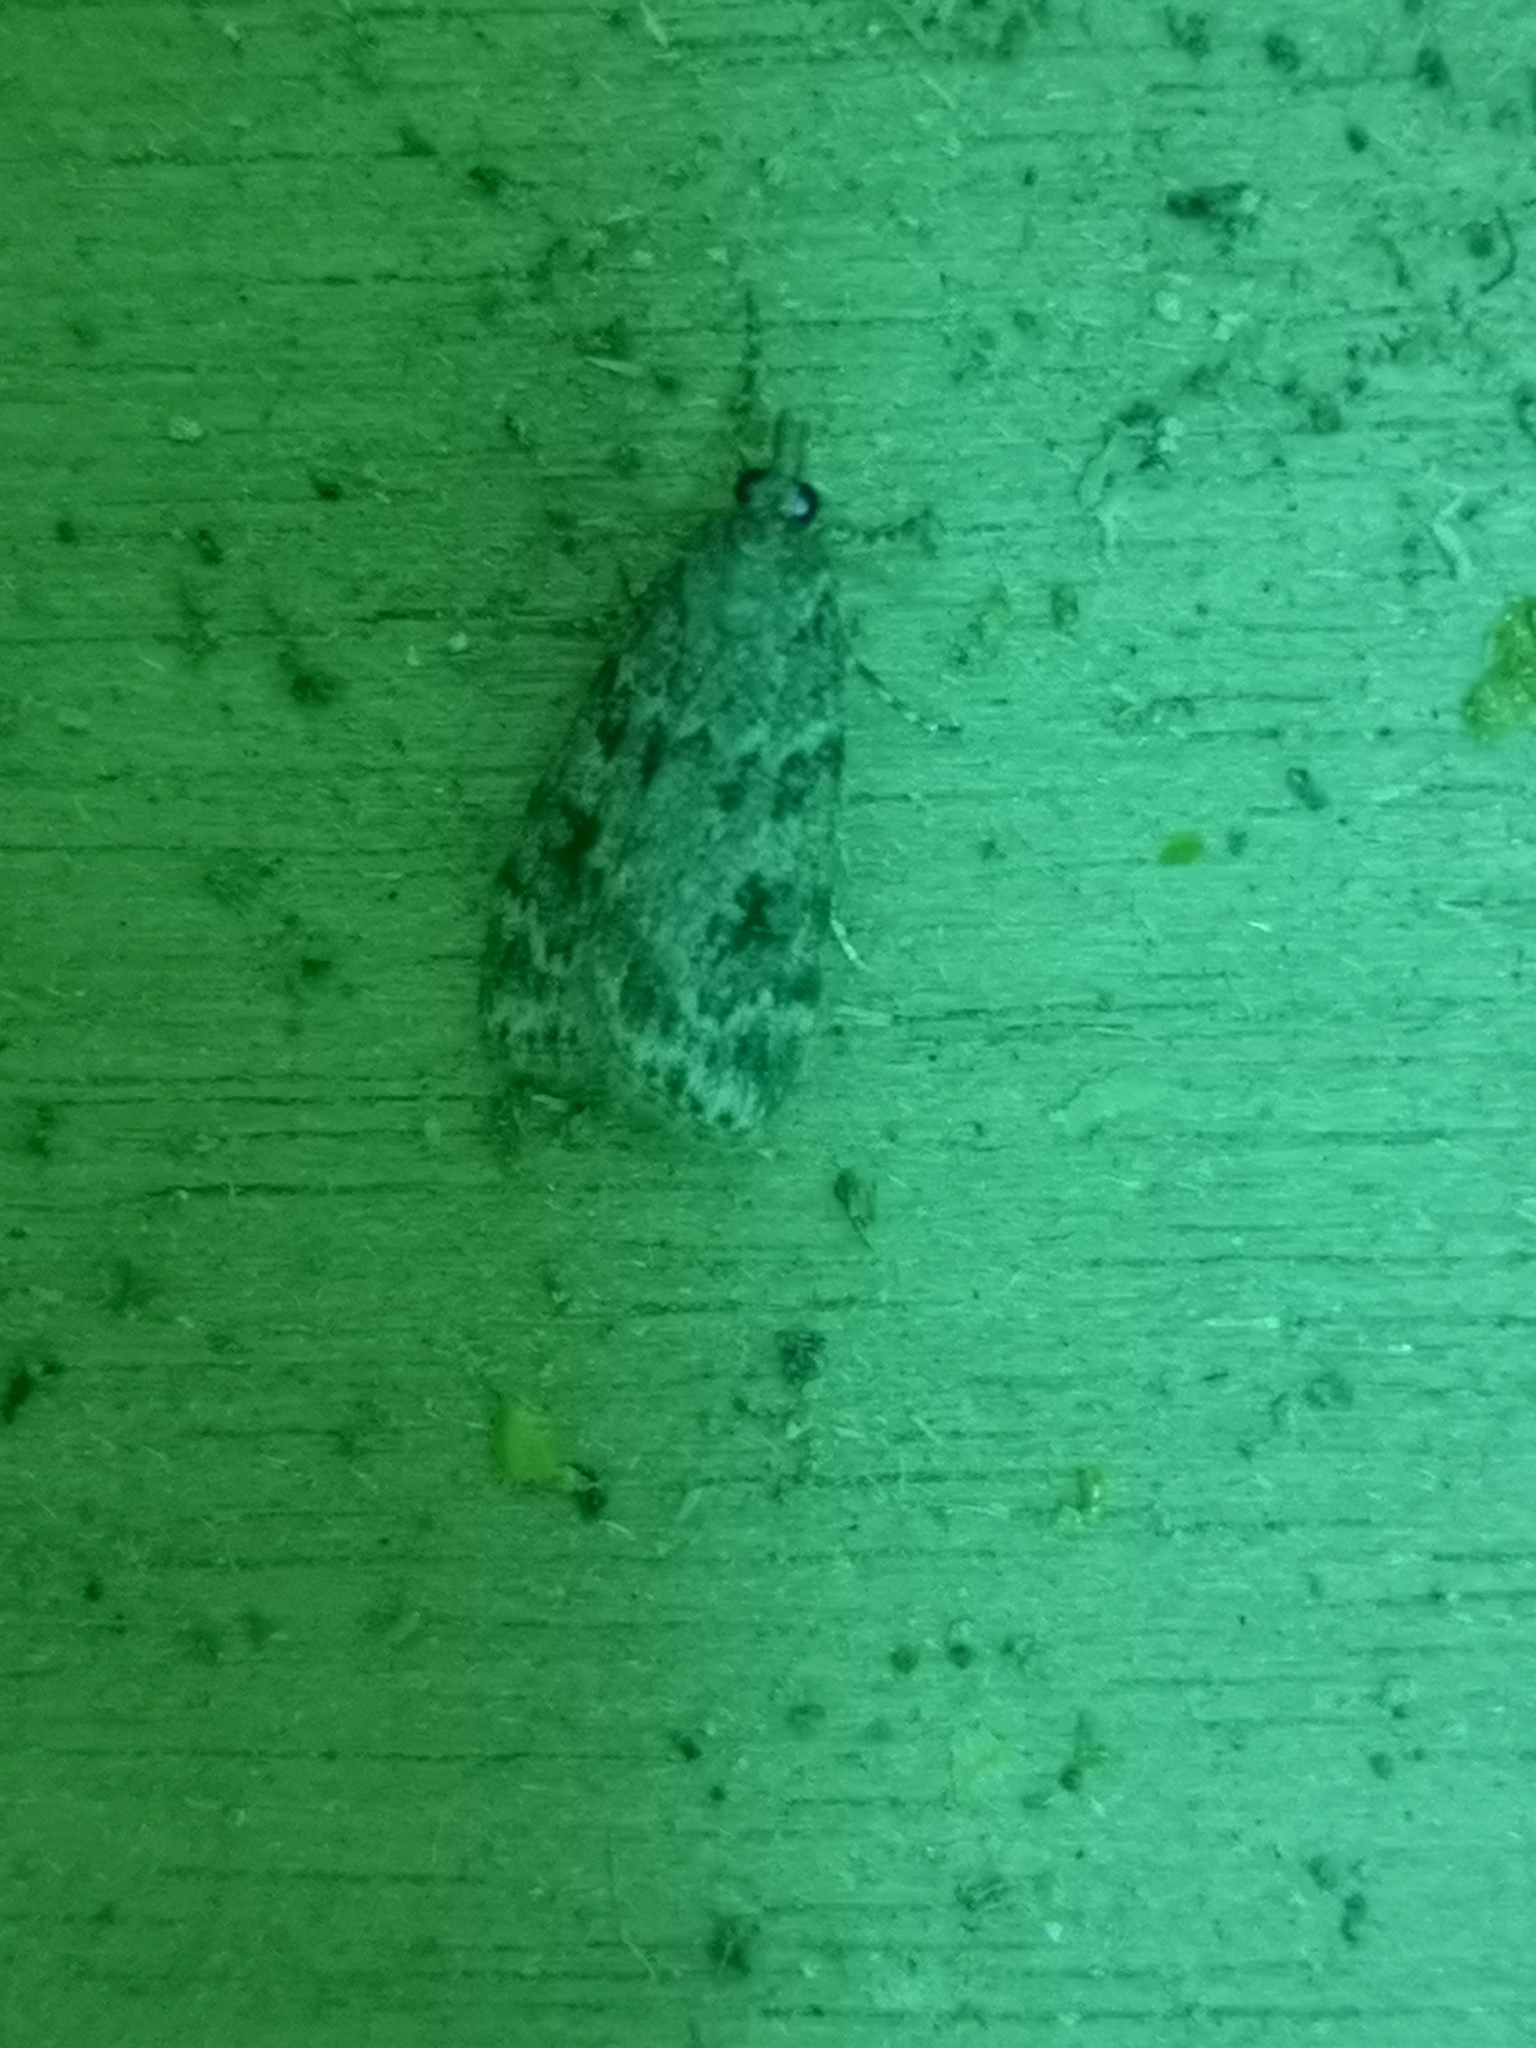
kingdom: Animalia
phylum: Arthropoda
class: Insecta
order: Lepidoptera
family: Crambidae
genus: Scoparia
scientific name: Scoparia ambigualis
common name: Common grey
